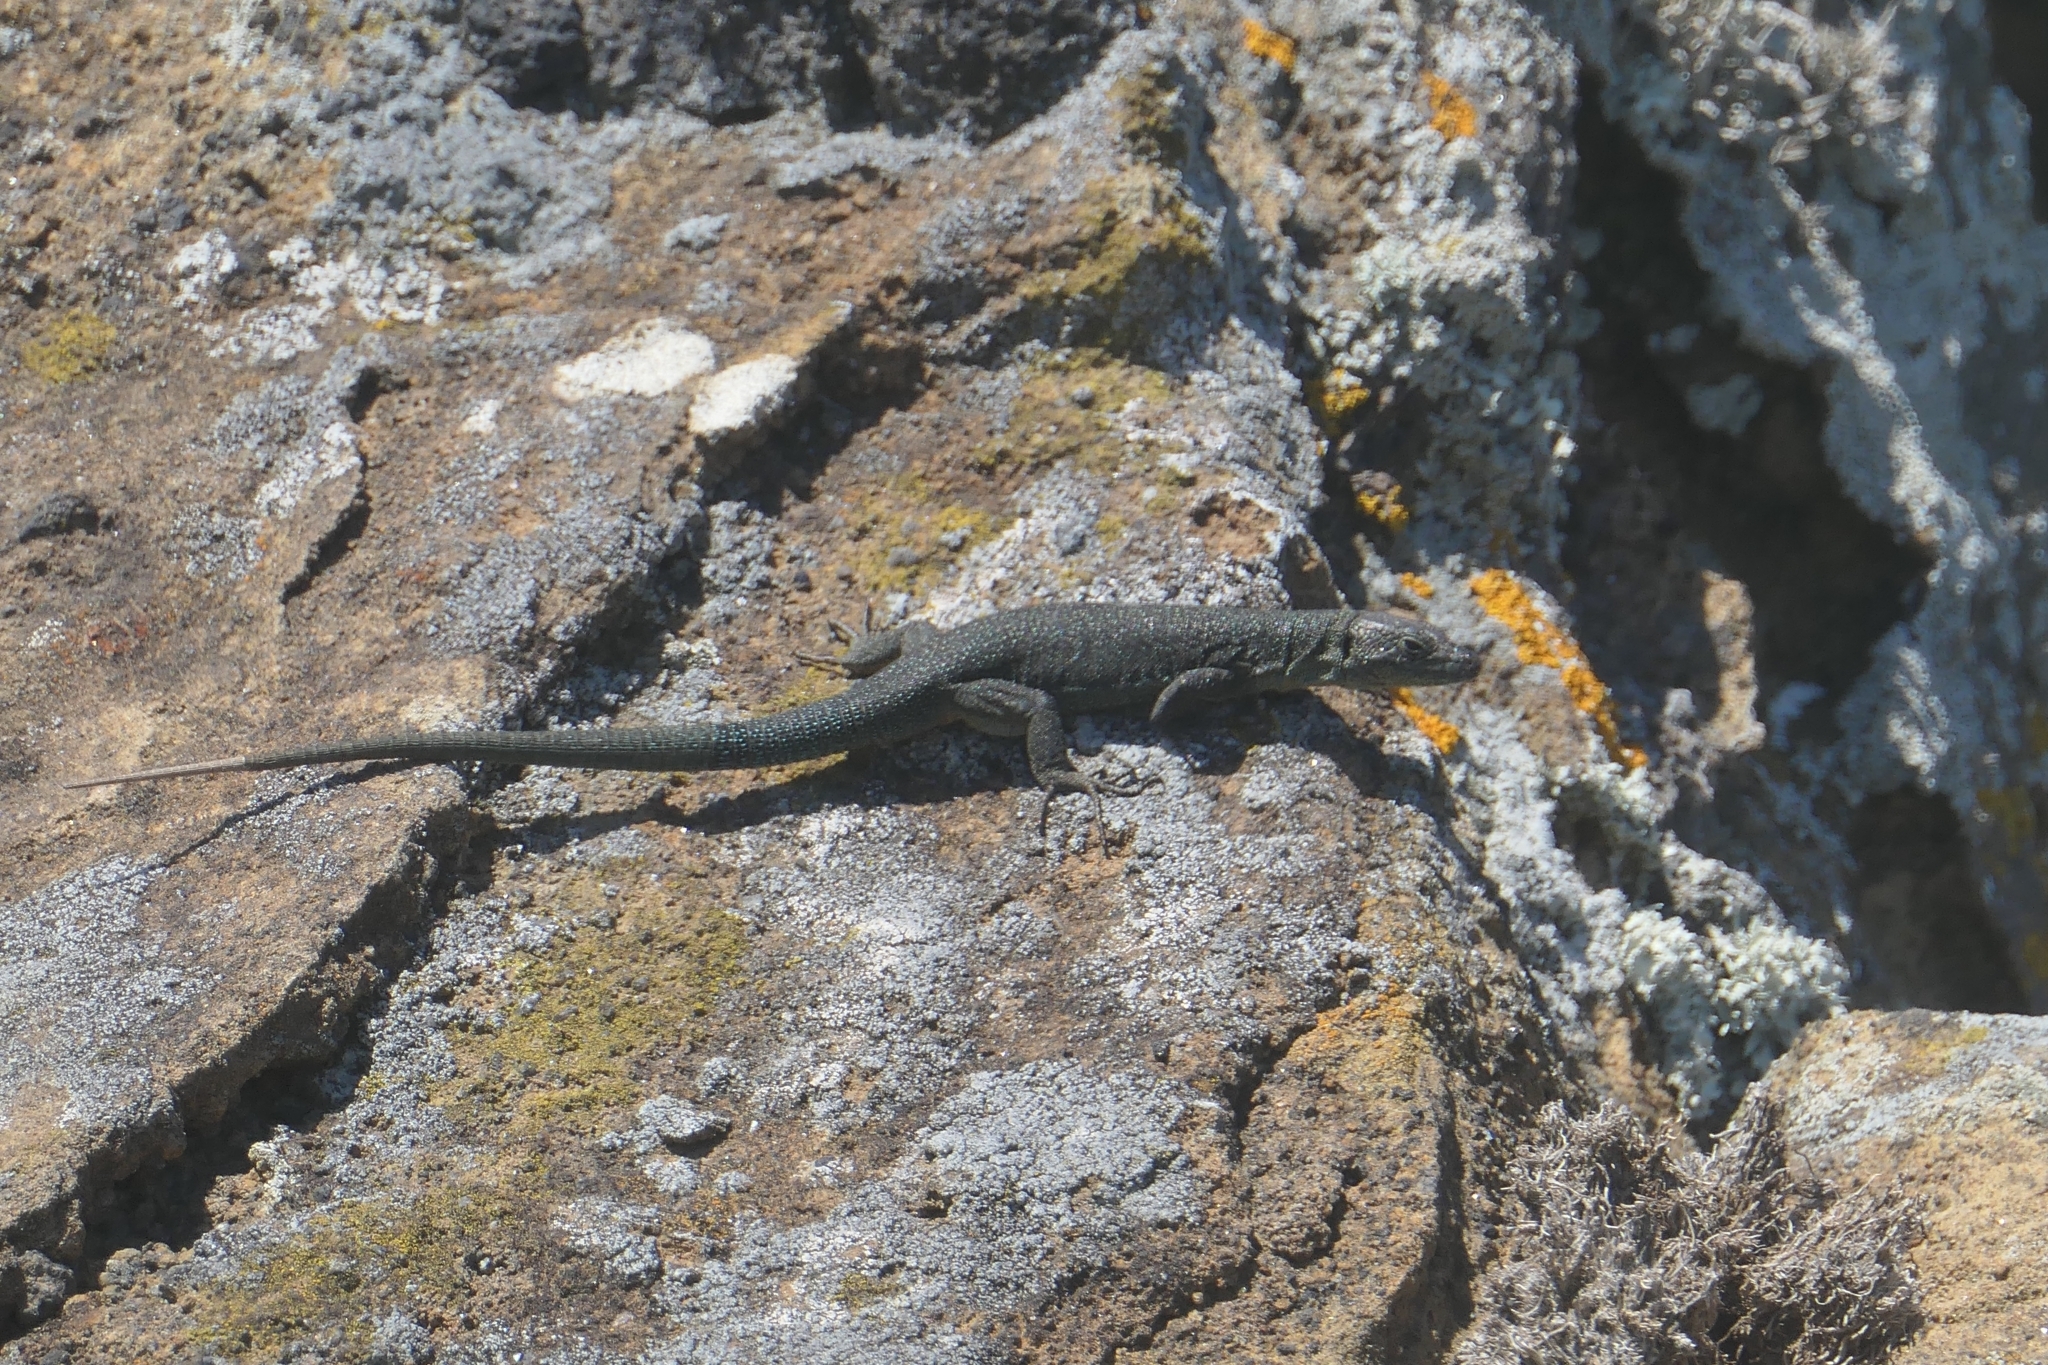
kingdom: Animalia
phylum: Chordata
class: Squamata
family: Lacertidae
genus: Teira
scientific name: Teira dugesii
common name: Madeira lizard
